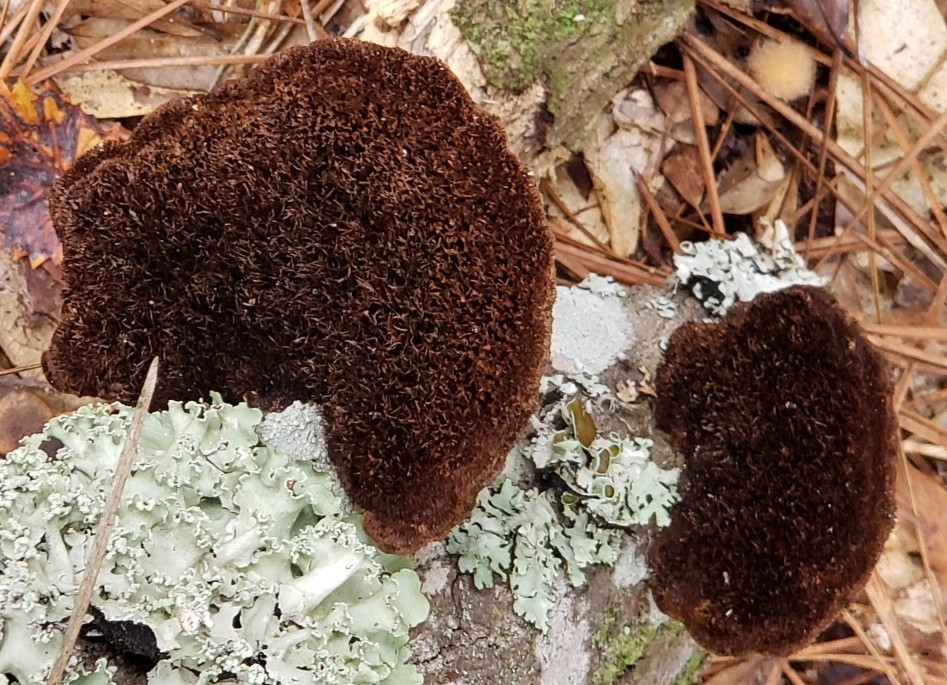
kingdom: Fungi
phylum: Basidiomycota
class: Agaricomycetes
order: Polyporales
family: Cerrenaceae
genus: Cerrena
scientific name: Cerrena hydnoides
